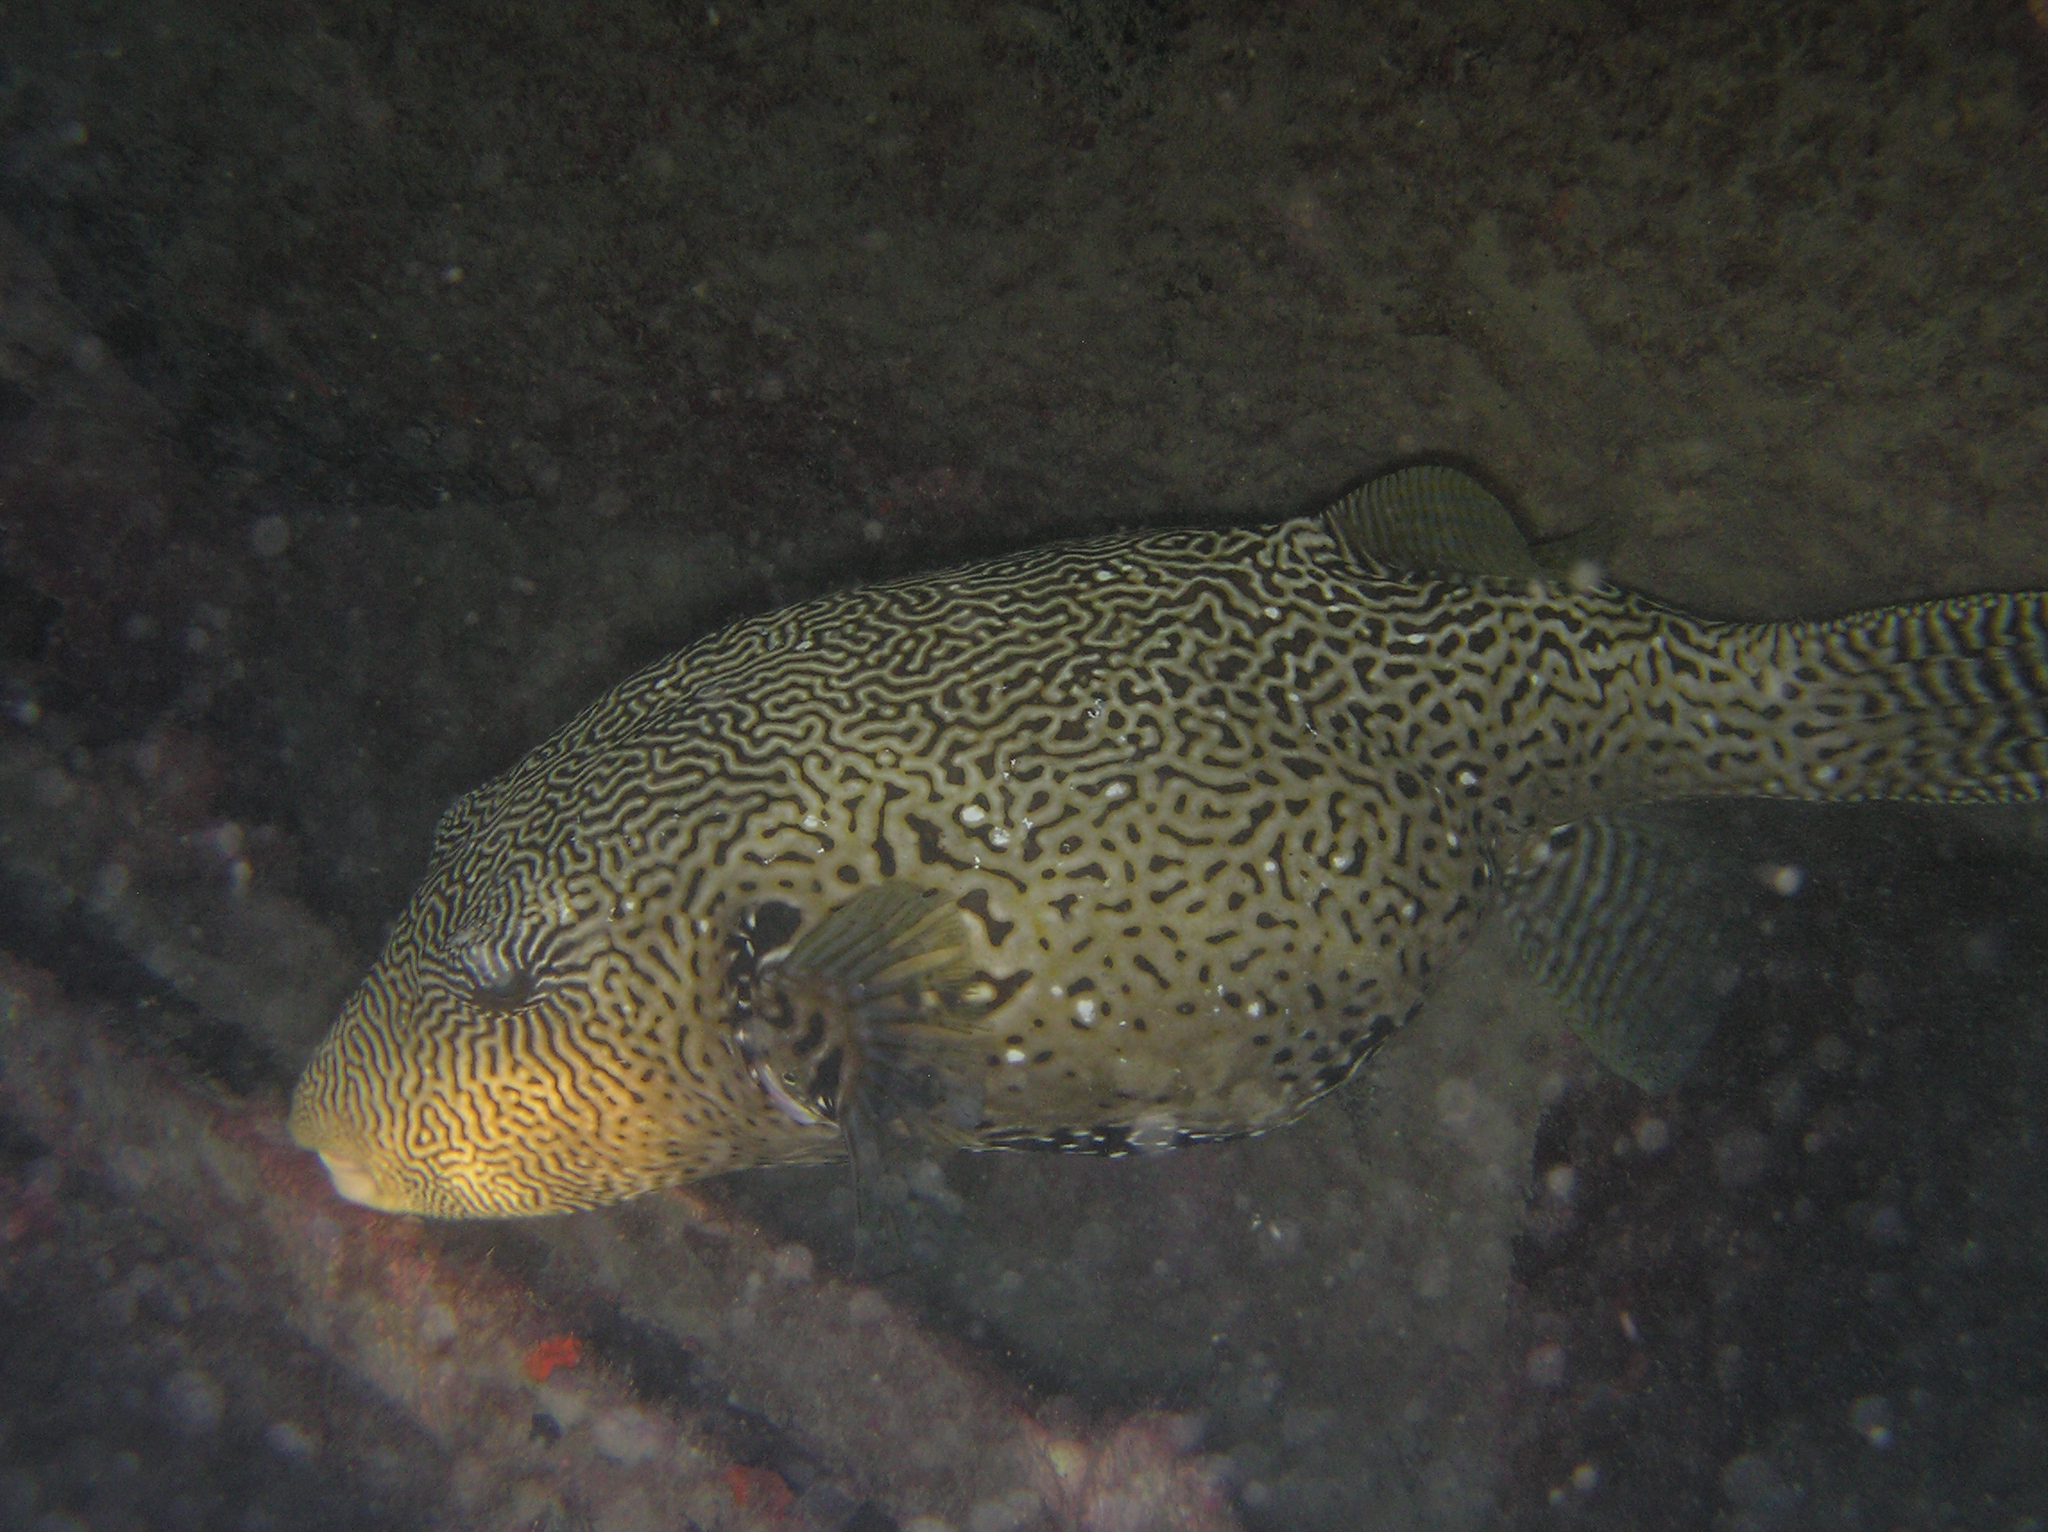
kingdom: Animalia
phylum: Chordata
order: Tetraodontiformes
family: Tetraodontidae
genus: Arothron
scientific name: Arothron mappa
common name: Map blaasop
